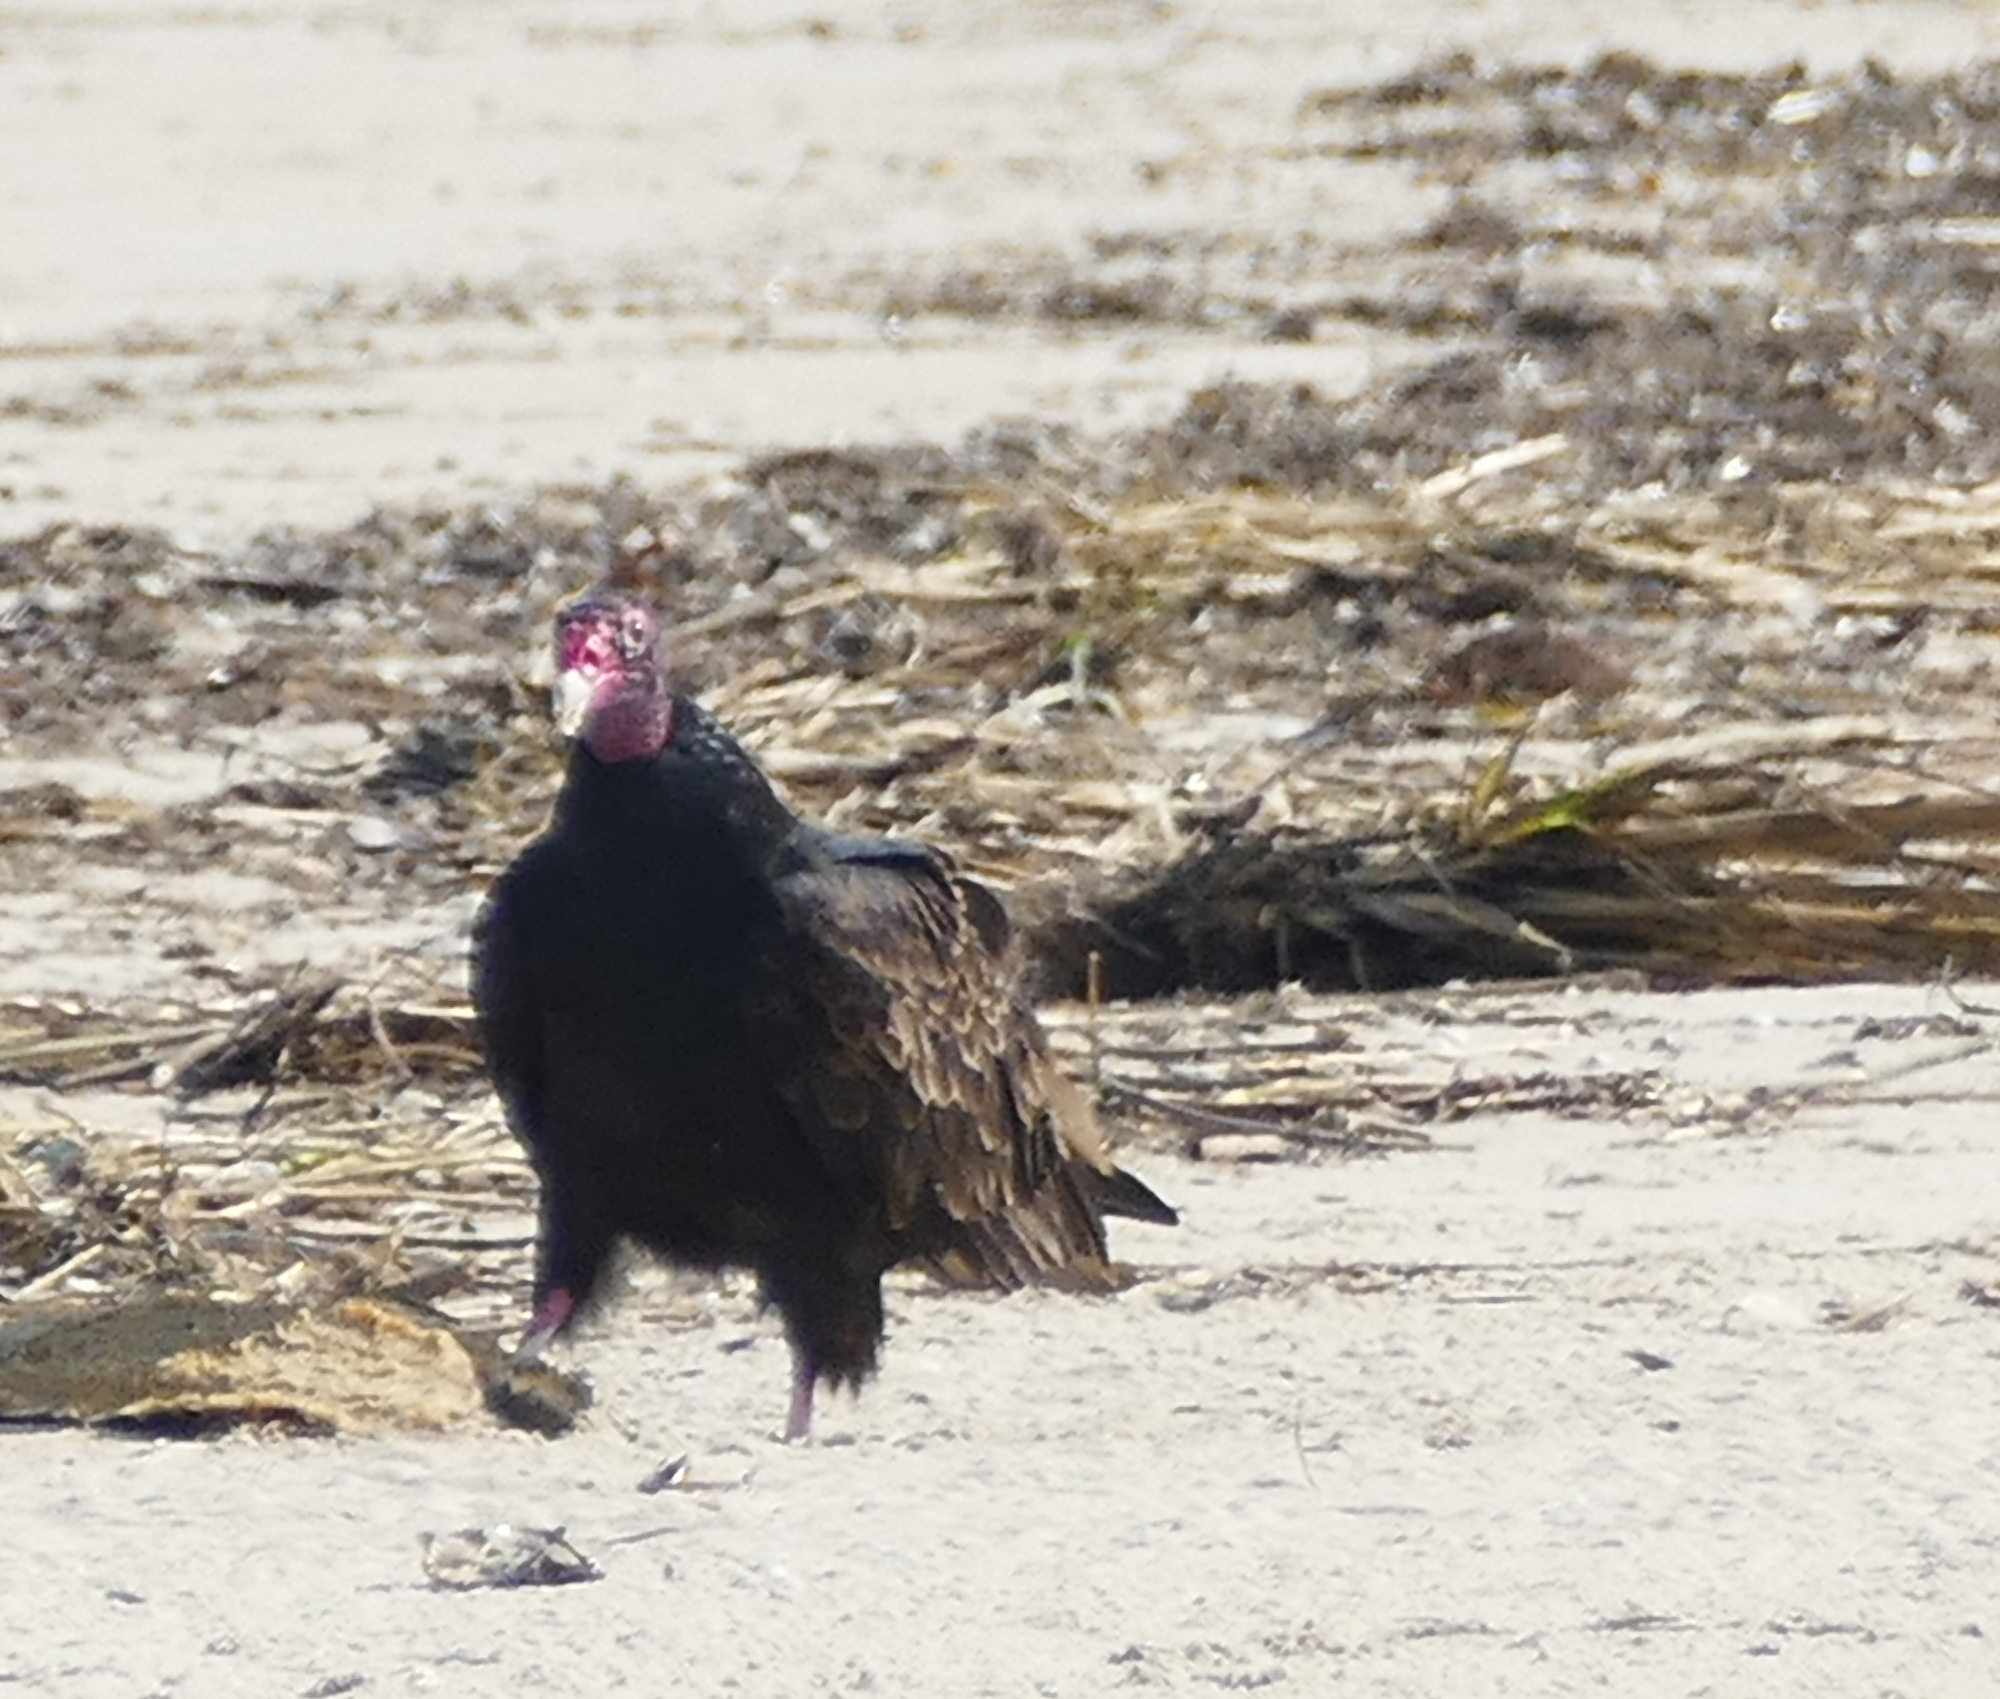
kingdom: Animalia
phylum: Chordata
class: Aves
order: Accipitriformes
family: Cathartidae
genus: Cathartes
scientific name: Cathartes aura
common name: Turkey vulture
